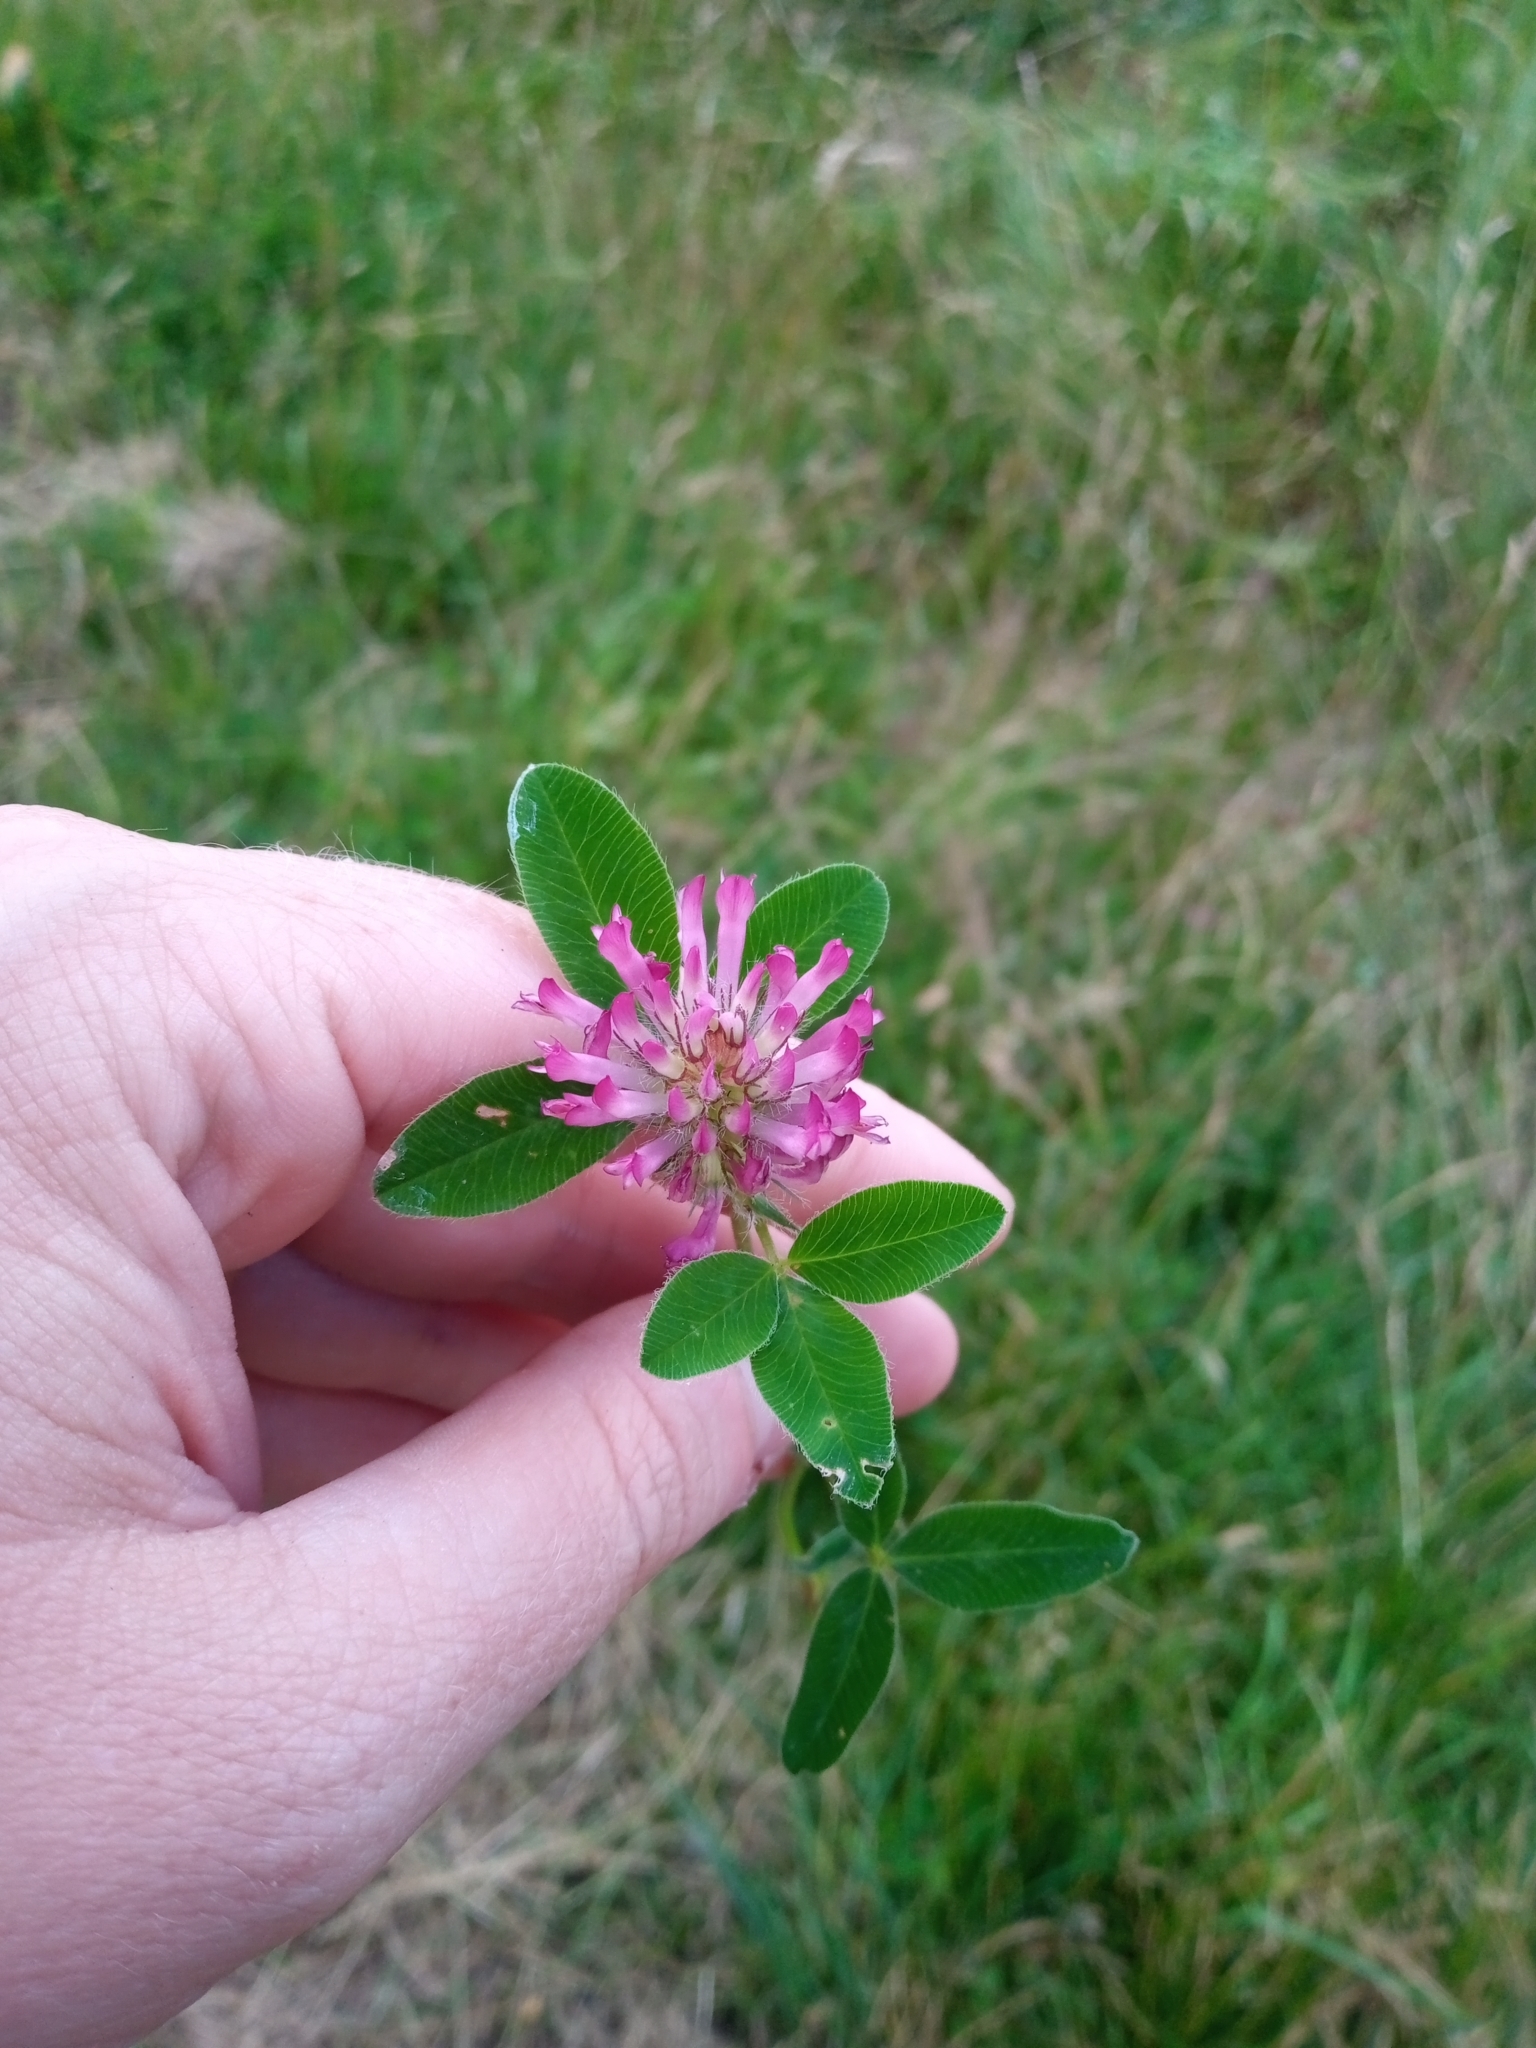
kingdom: Plantae
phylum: Tracheophyta
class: Magnoliopsida
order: Fabales
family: Fabaceae
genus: Trifolium
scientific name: Trifolium medium
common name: Zigzag clover
